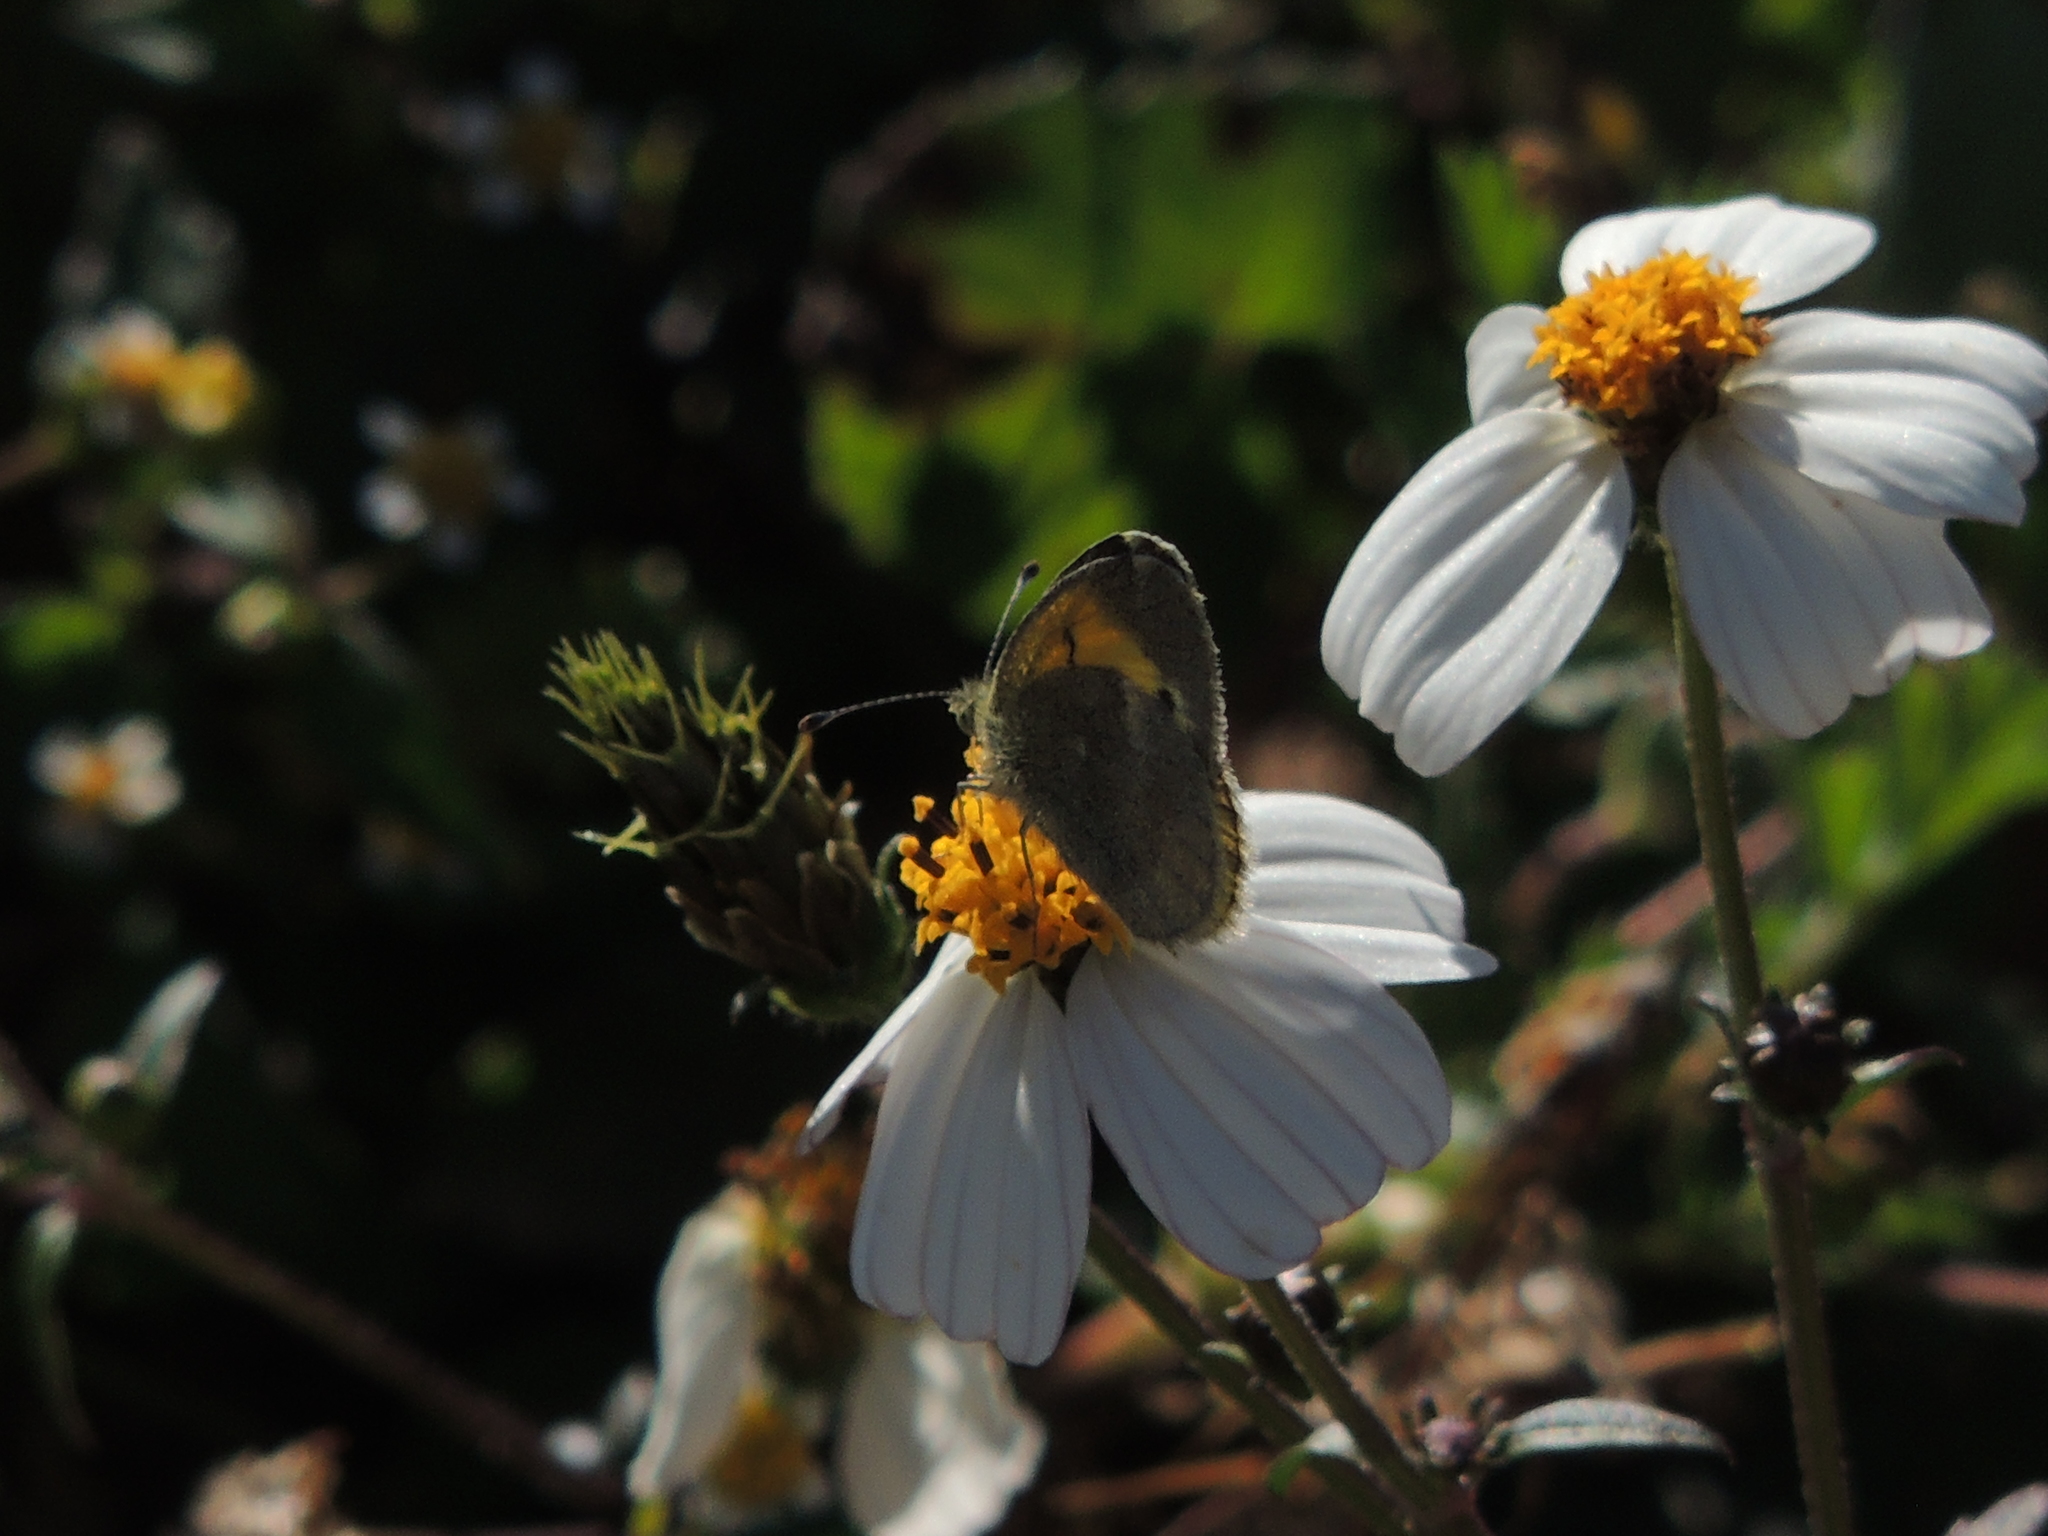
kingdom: Animalia
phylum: Arthropoda
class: Insecta
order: Lepidoptera
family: Pieridae
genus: Nathalis
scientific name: Nathalis iole
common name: Dainty sulphur
